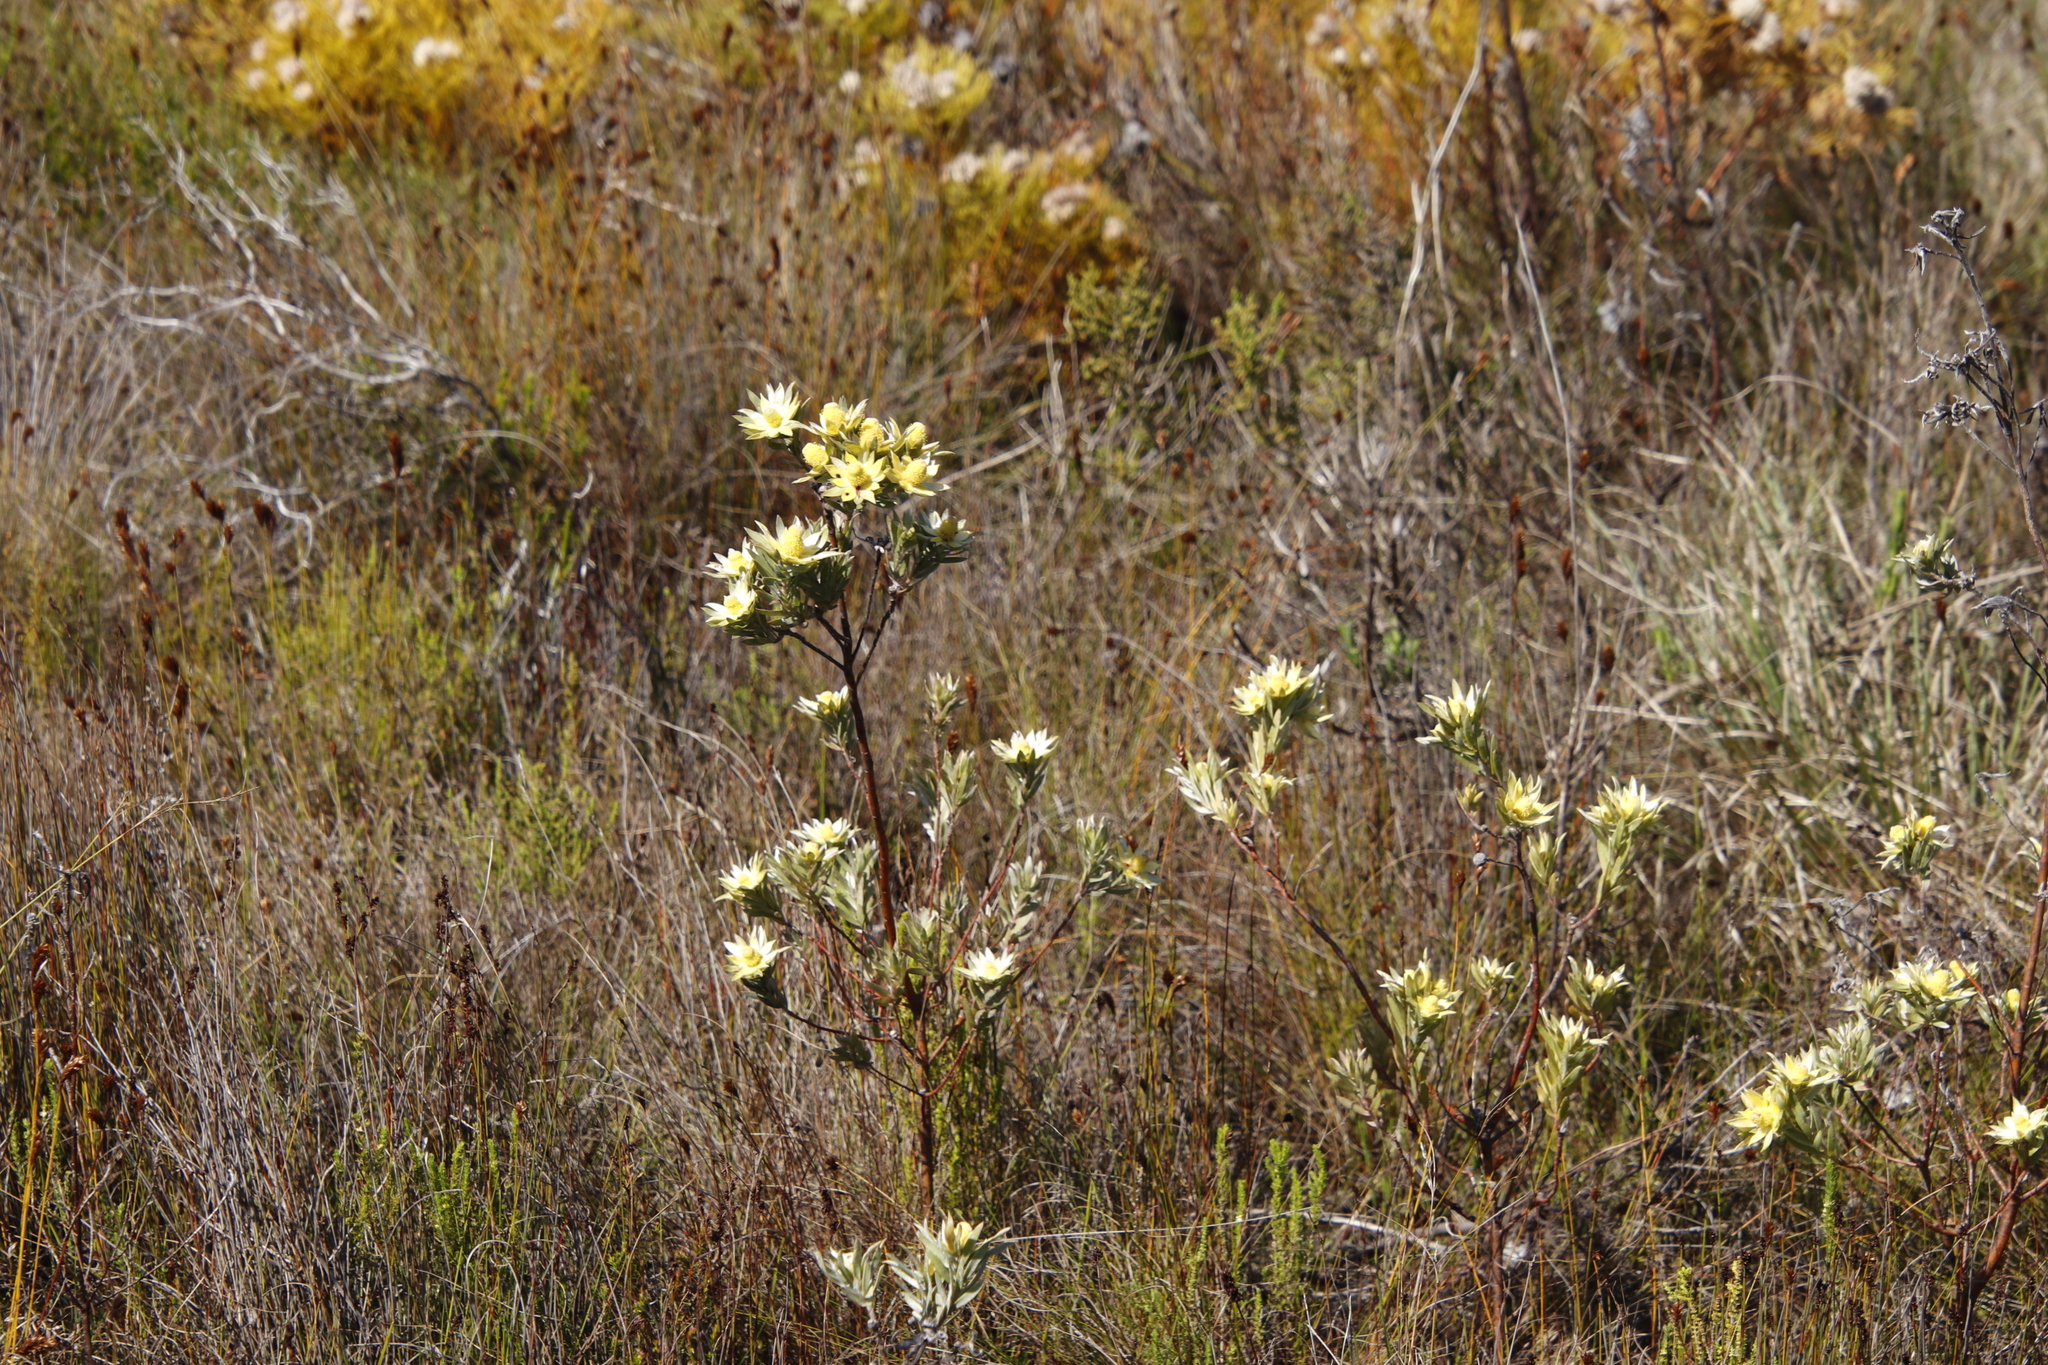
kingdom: Plantae
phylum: Tracheophyta
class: Magnoliopsida
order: Proteales
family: Proteaceae
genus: Leucadendron
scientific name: Leucadendron floridum
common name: Flats conebush
